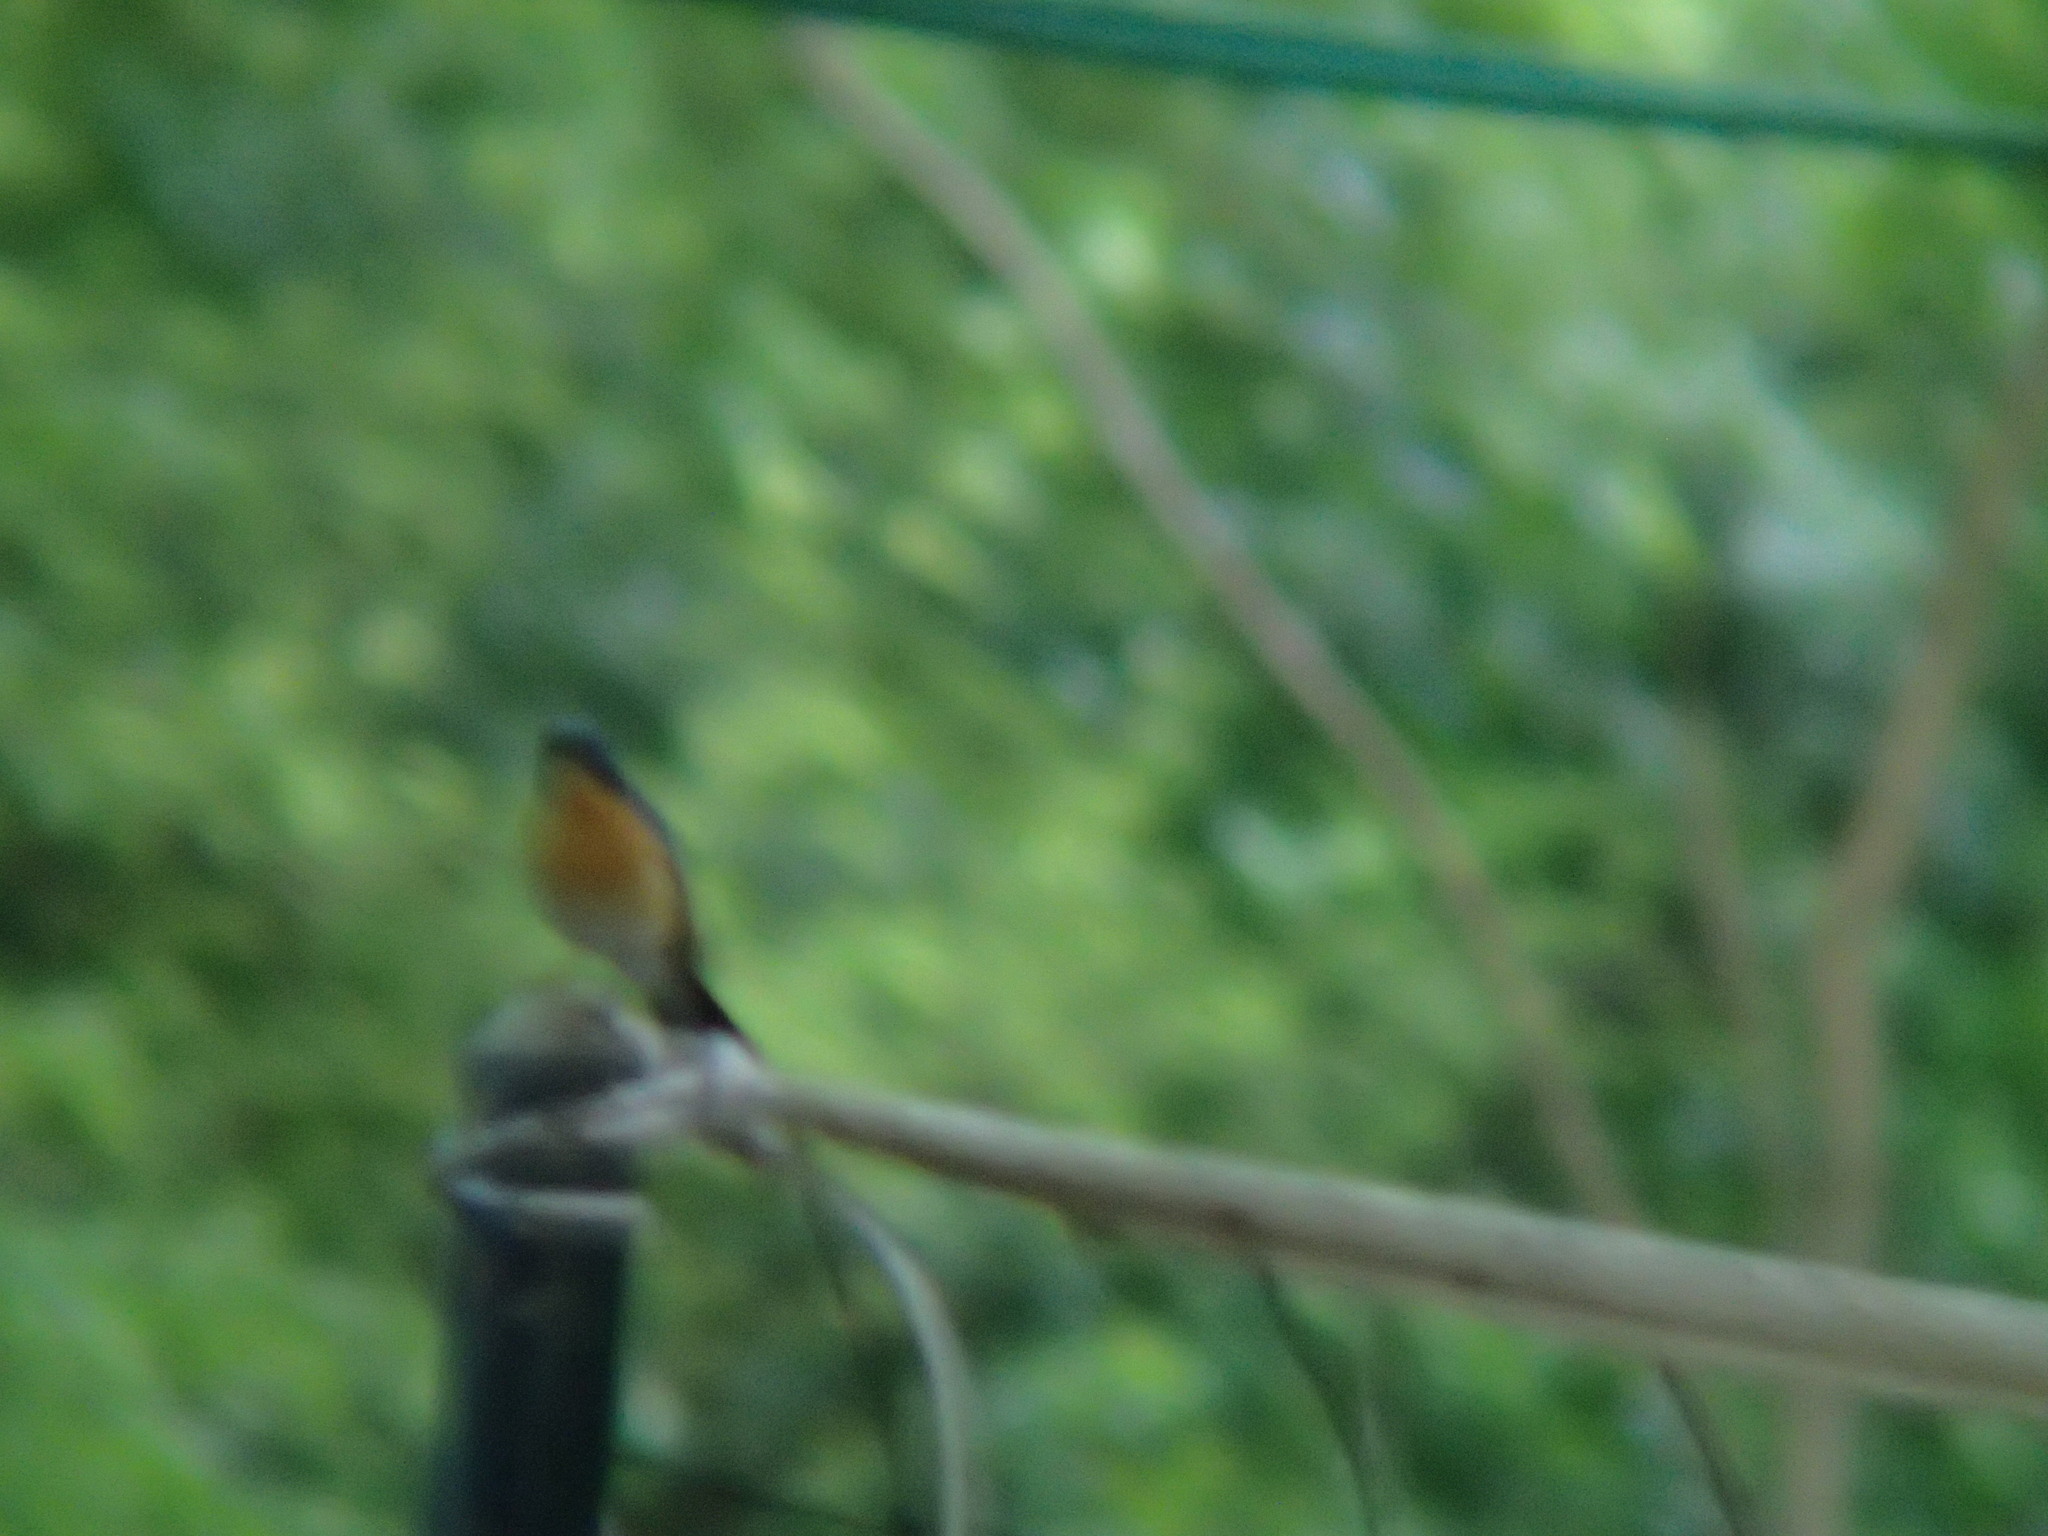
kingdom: Animalia
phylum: Chordata
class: Aves
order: Passeriformes
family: Muscicapidae
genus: Cyornis
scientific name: Cyornis tickelliae
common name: Tickell's blue flycatcher
